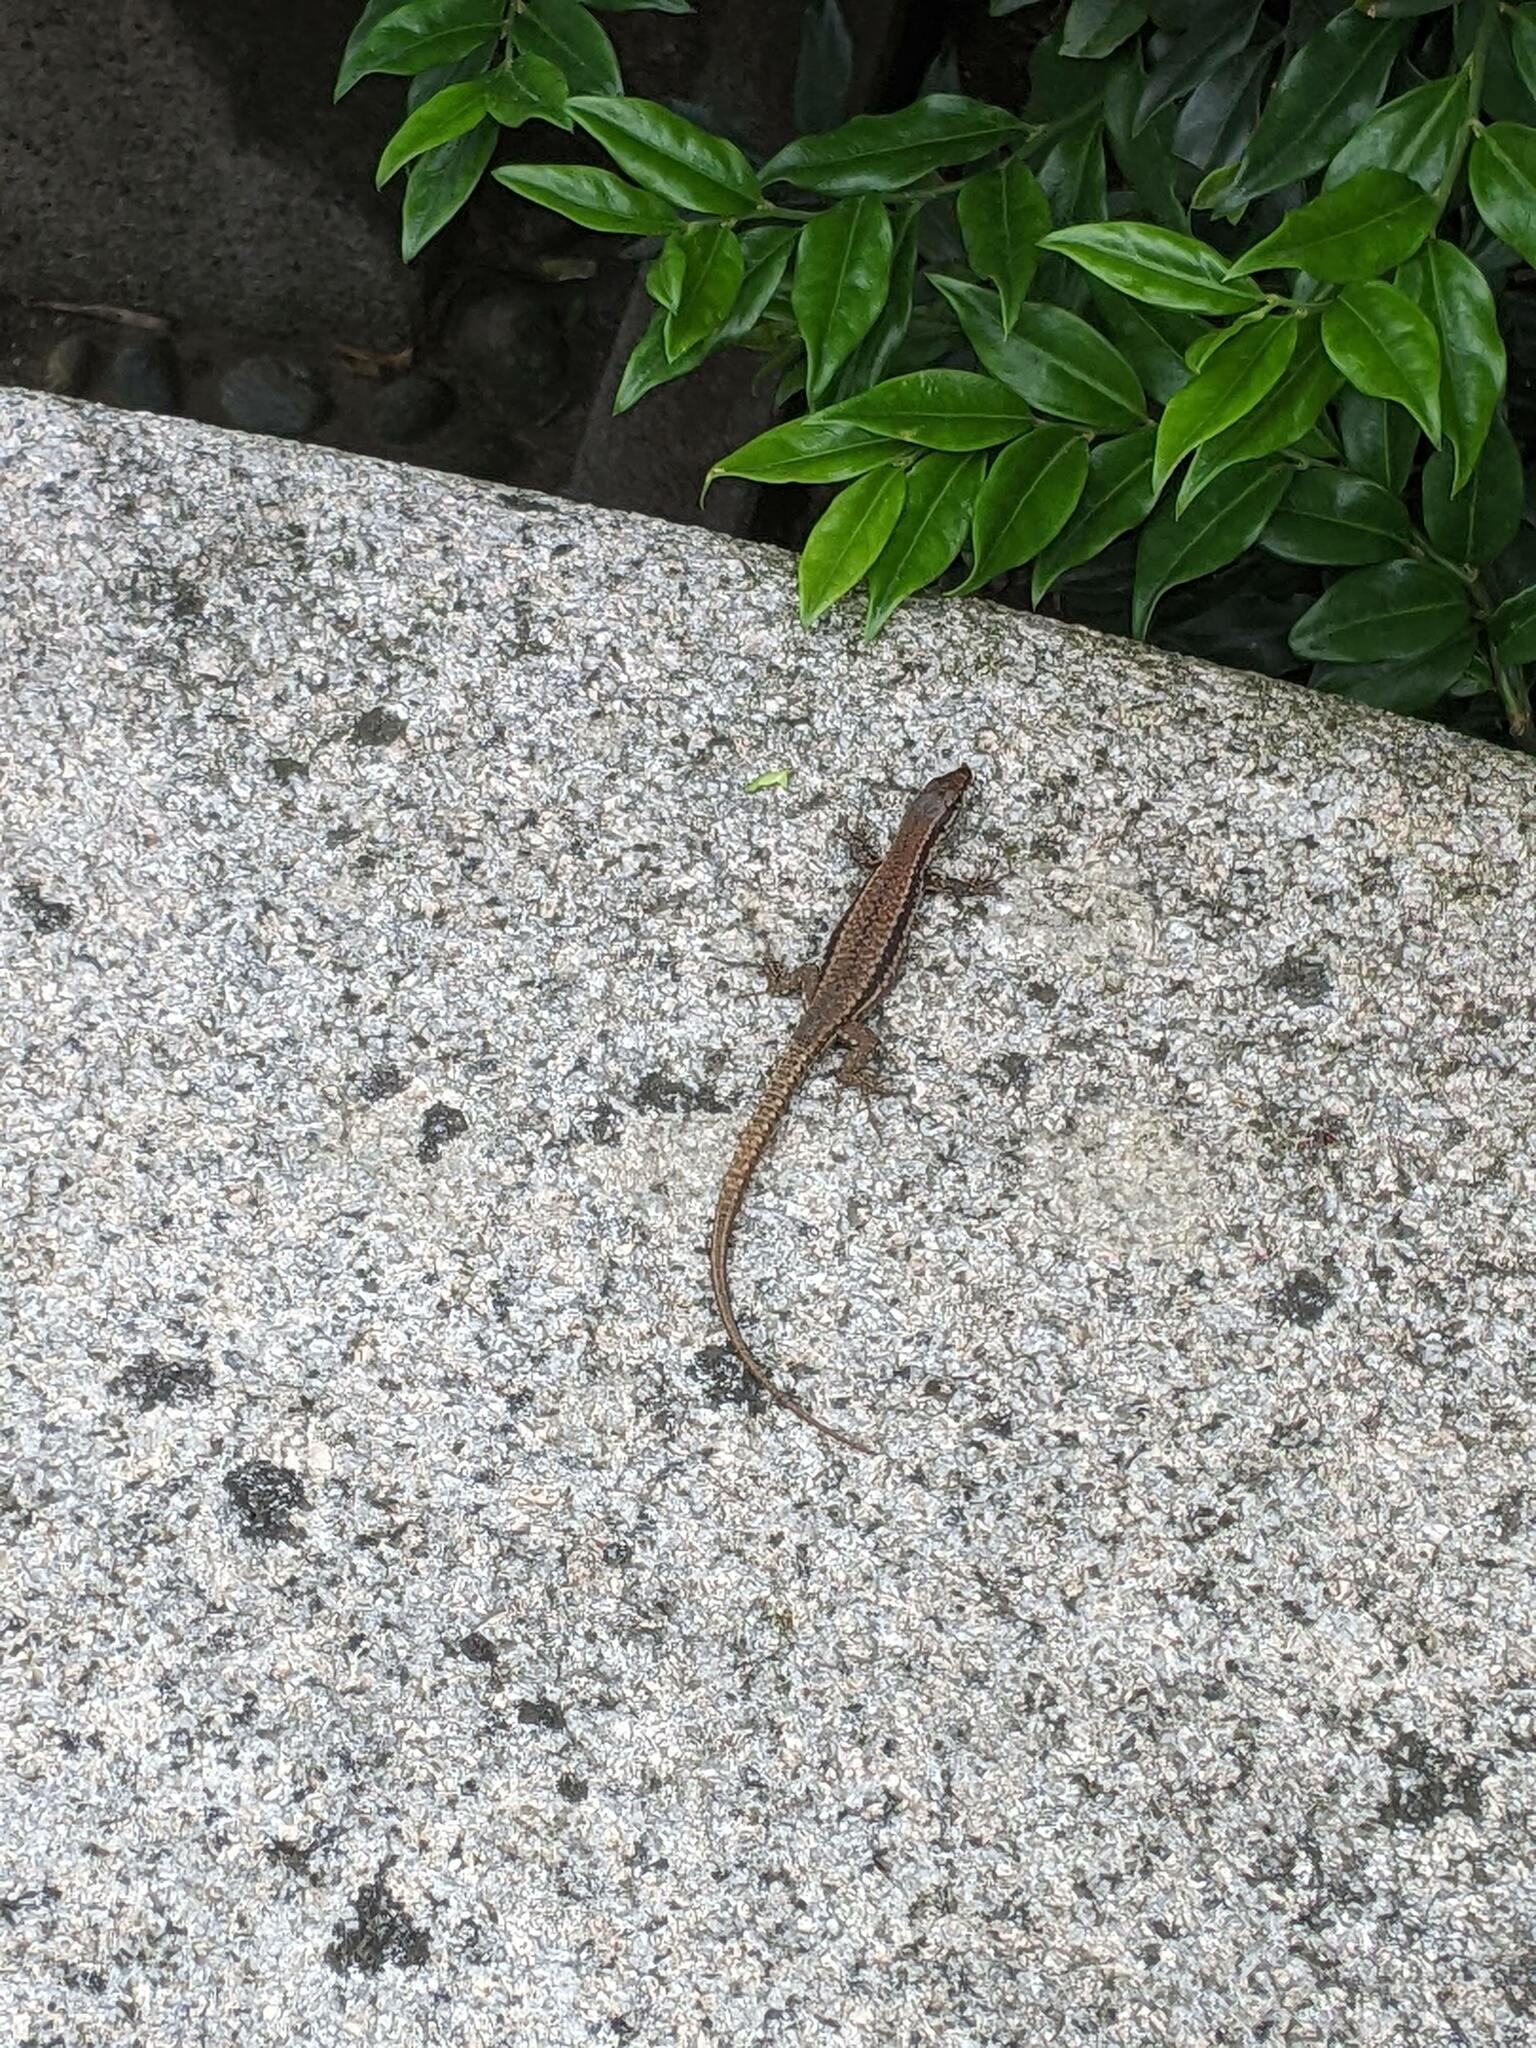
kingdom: Animalia
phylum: Chordata
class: Squamata
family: Lacertidae
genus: Podarcis
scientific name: Podarcis muralis
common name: Common wall lizard
